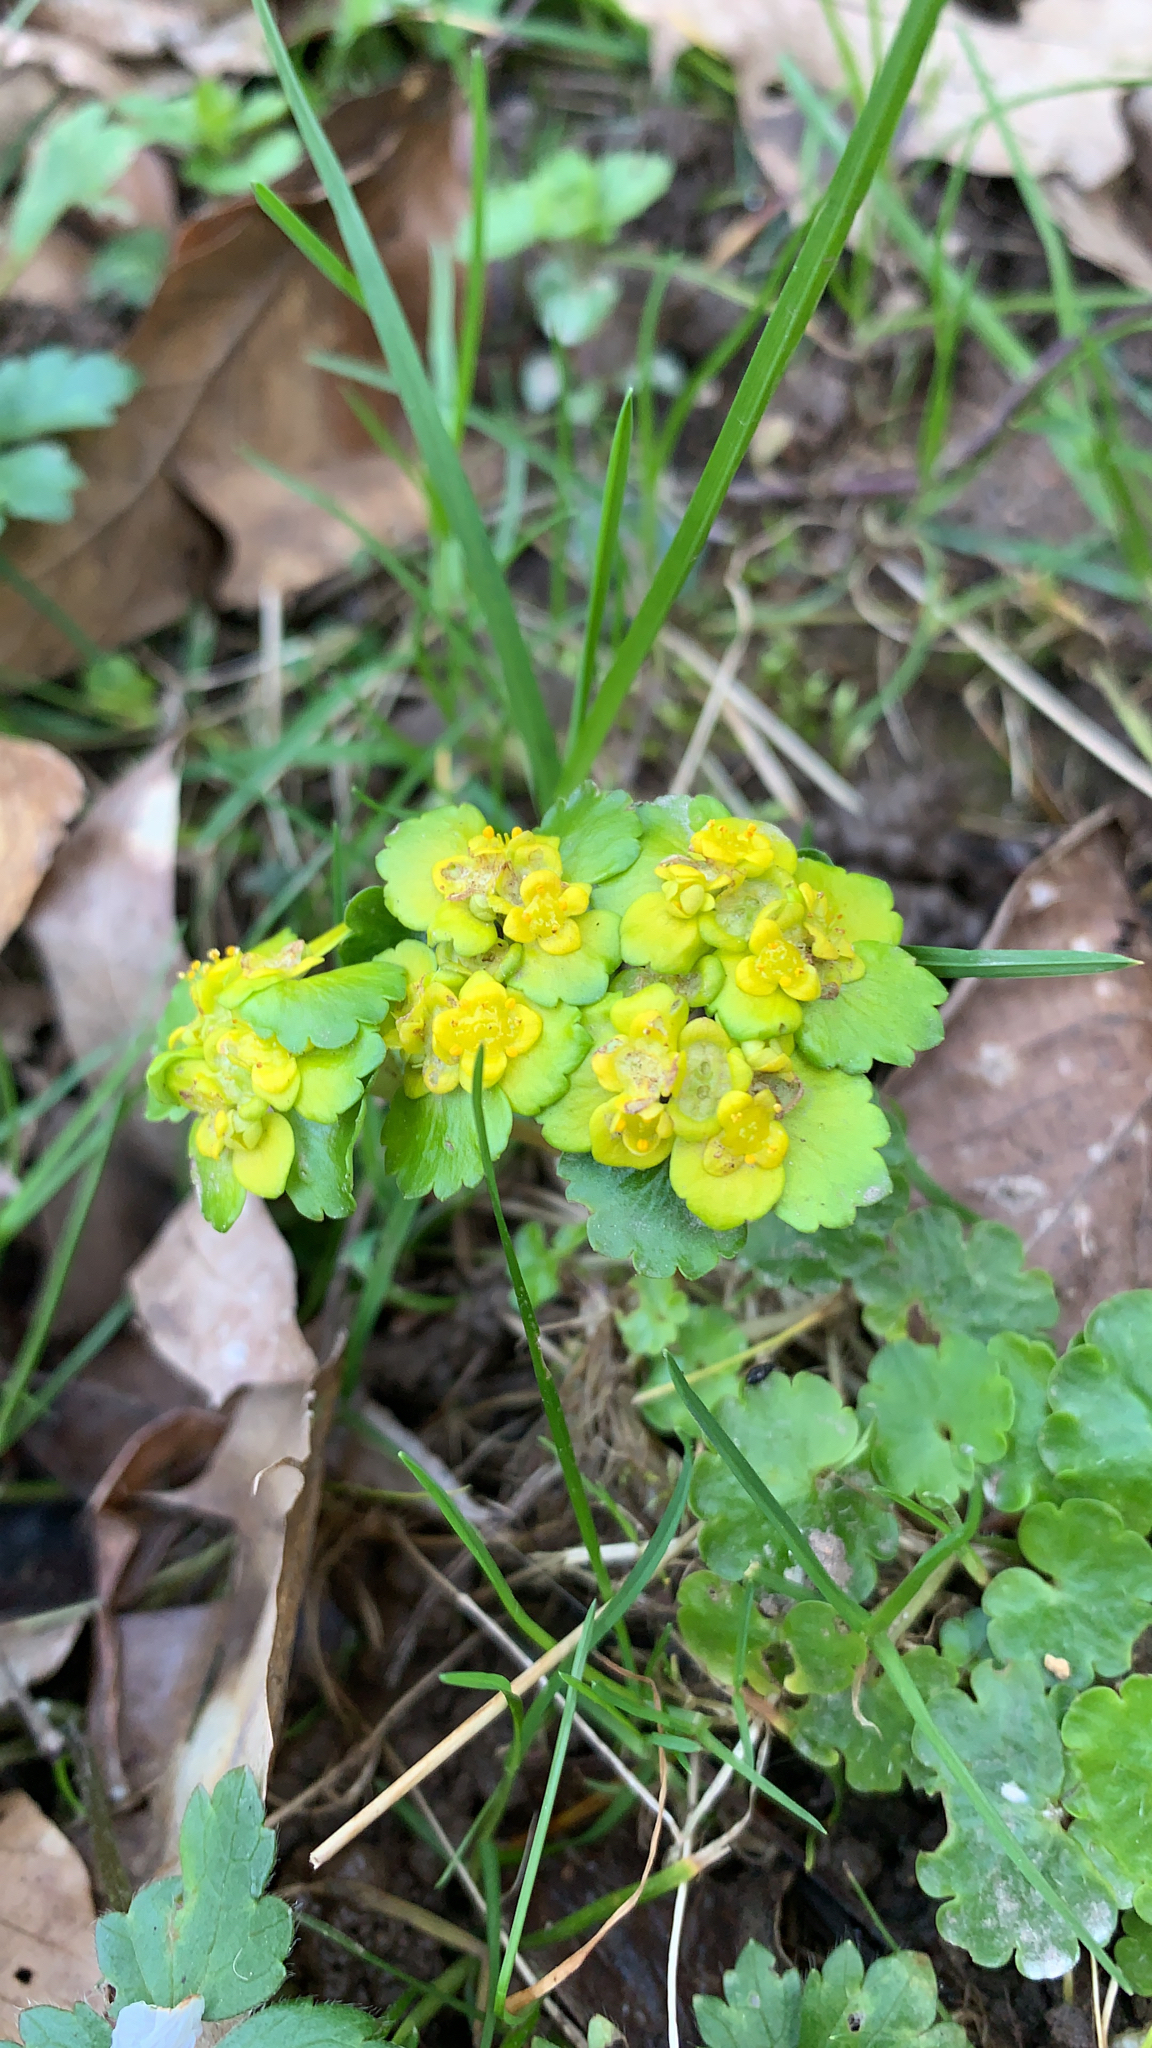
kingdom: Plantae
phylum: Tracheophyta
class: Magnoliopsida
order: Saxifragales
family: Saxifragaceae
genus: Chrysosplenium
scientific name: Chrysosplenium alternifolium
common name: Alternate-leaved golden-saxifrage
